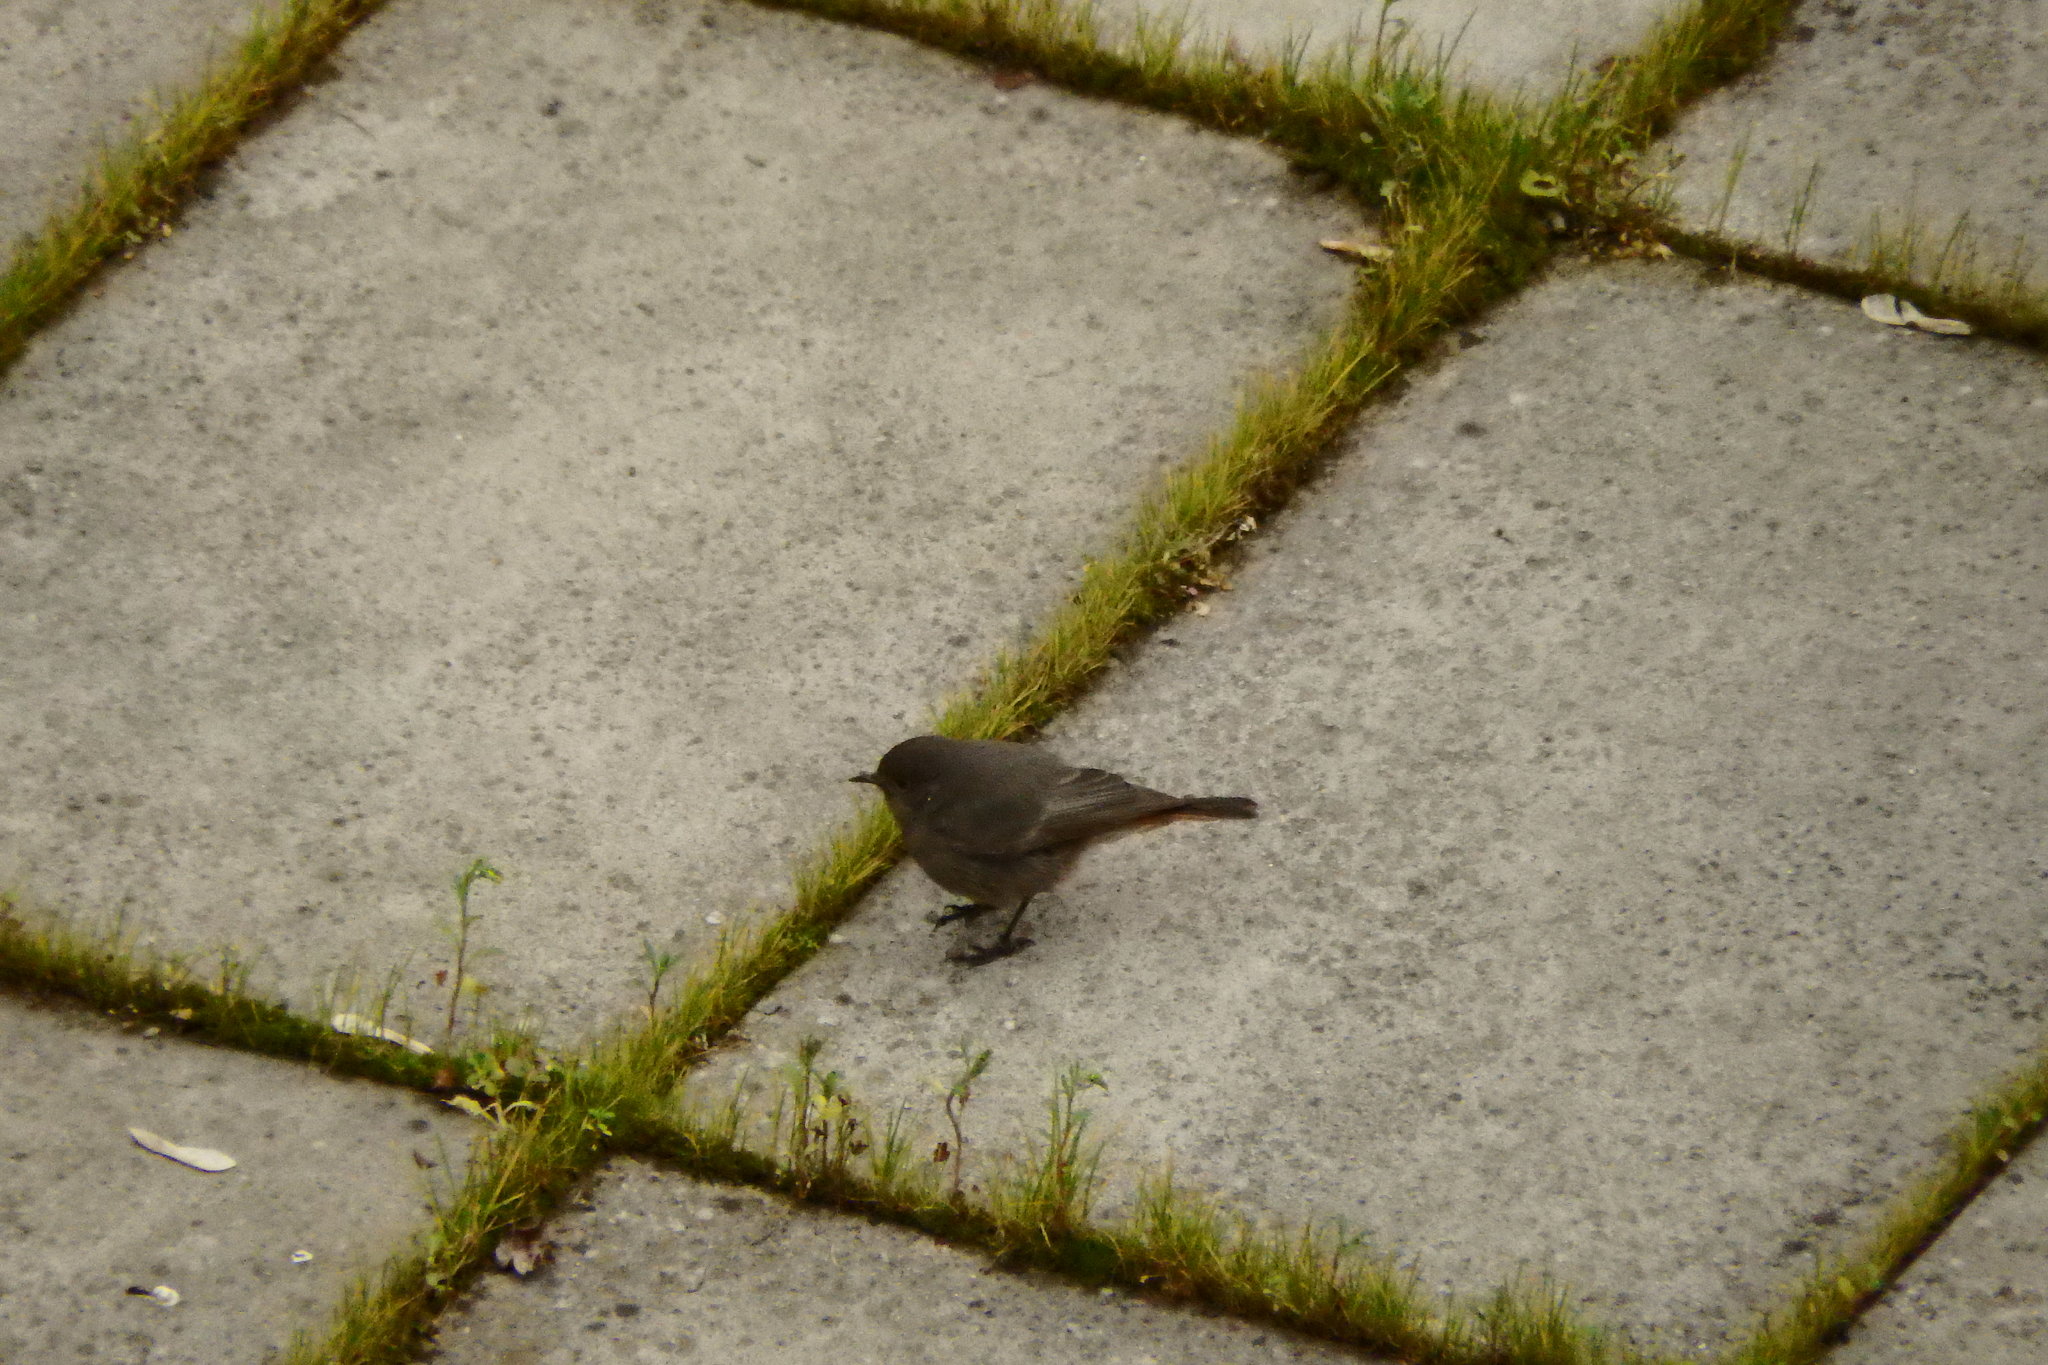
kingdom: Animalia
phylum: Chordata
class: Aves
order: Passeriformes
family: Muscicapidae
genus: Phoenicurus
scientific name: Phoenicurus ochruros
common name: Black redstart
